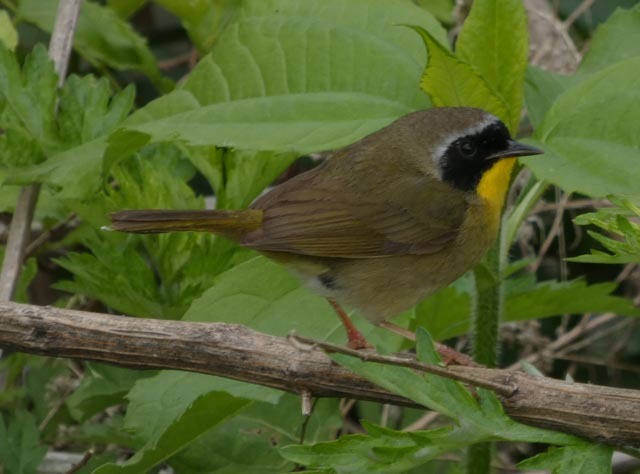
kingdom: Animalia
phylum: Chordata
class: Aves
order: Passeriformes
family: Parulidae
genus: Geothlypis
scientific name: Geothlypis trichas
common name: Common yellowthroat
